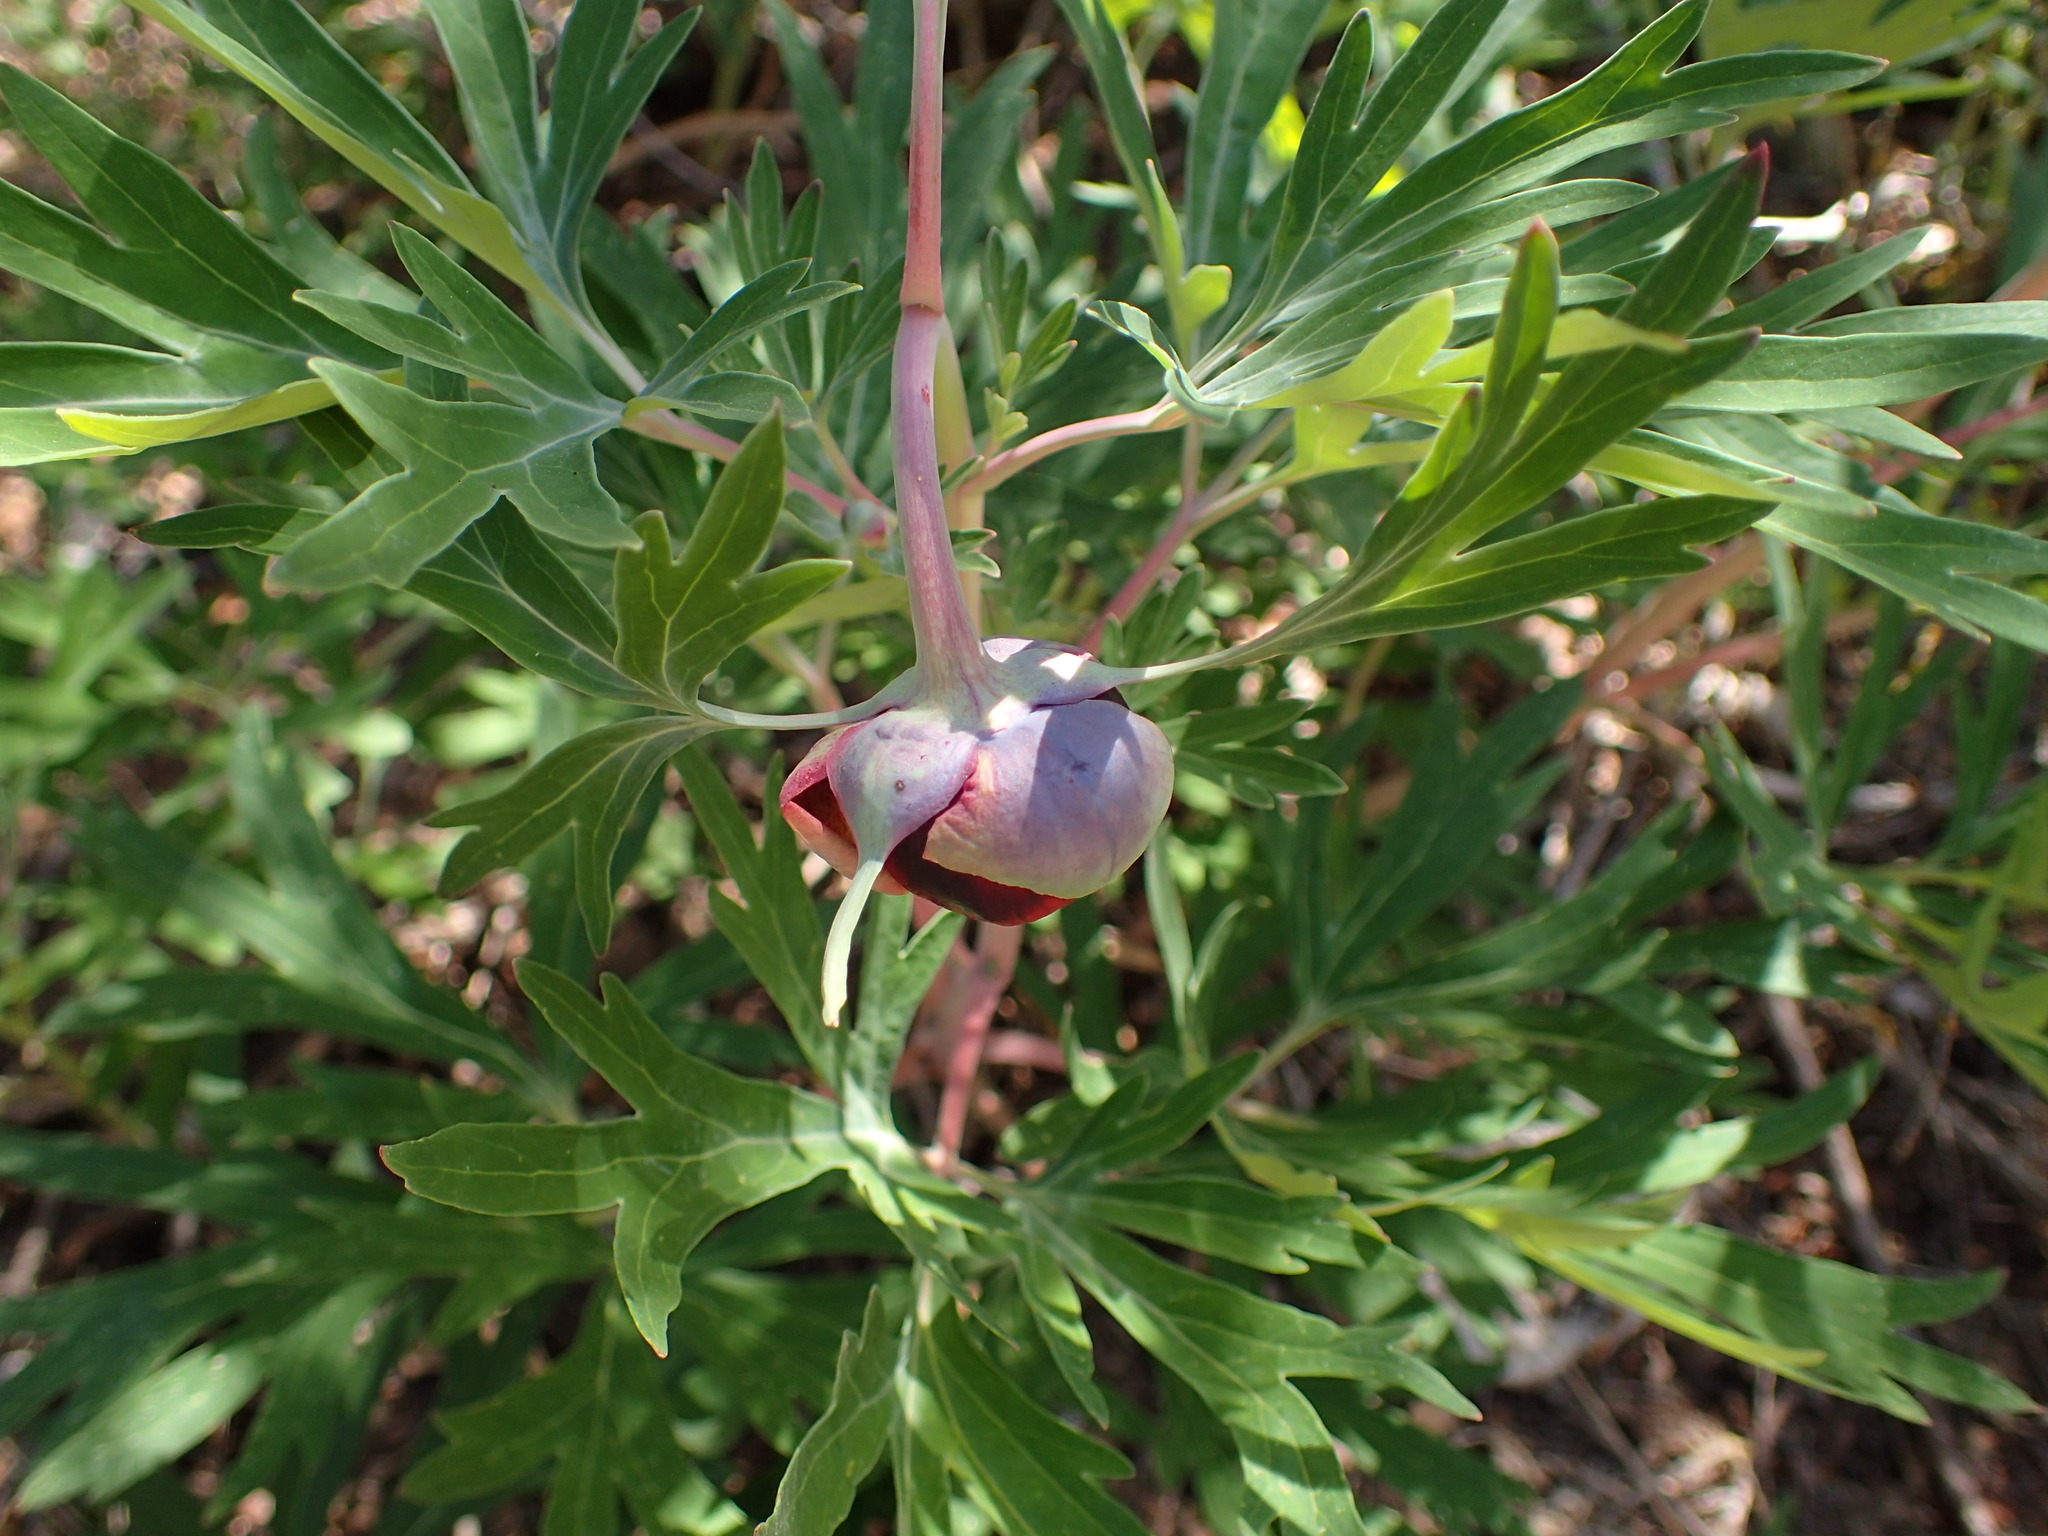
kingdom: Plantae
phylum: Tracheophyta
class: Magnoliopsida
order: Saxifragales
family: Paeoniaceae
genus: Paeonia
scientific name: Paeonia californica
